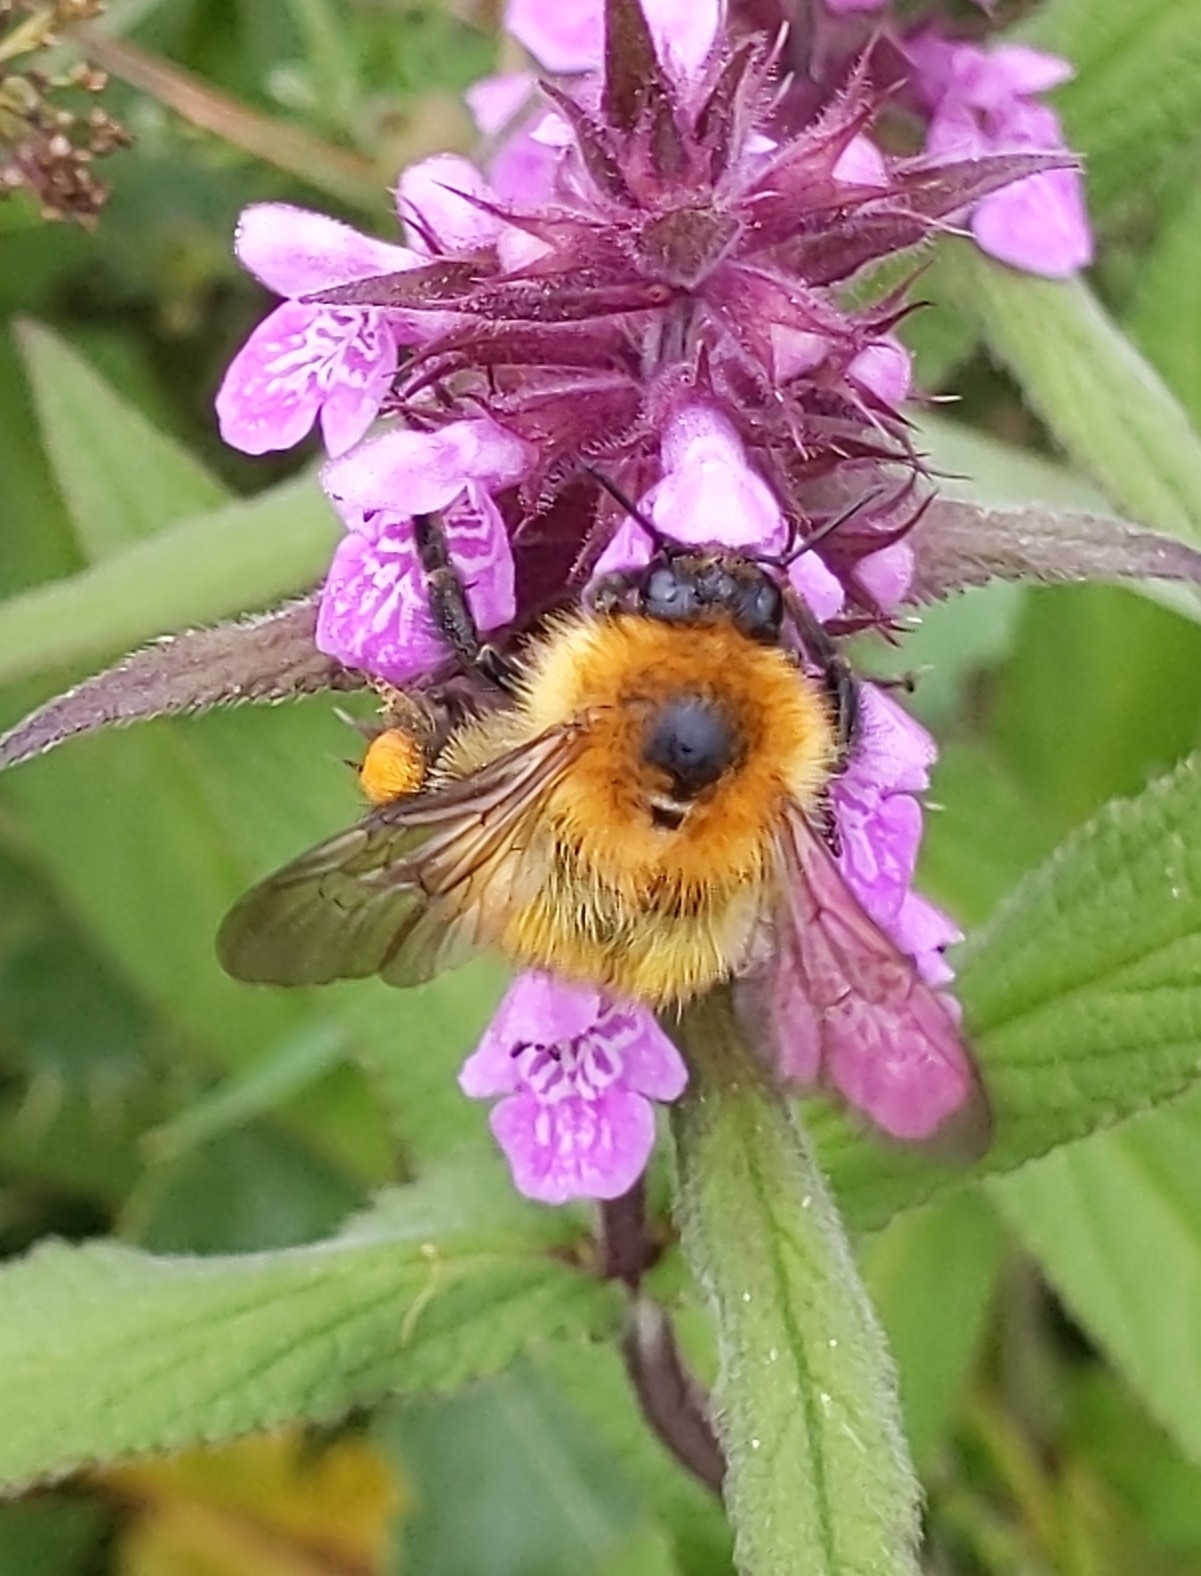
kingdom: Animalia
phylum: Arthropoda
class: Insecta
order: Hymenoptera
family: Apidae
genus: Bombus
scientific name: Bombus pascuorum
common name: Common carder bee
